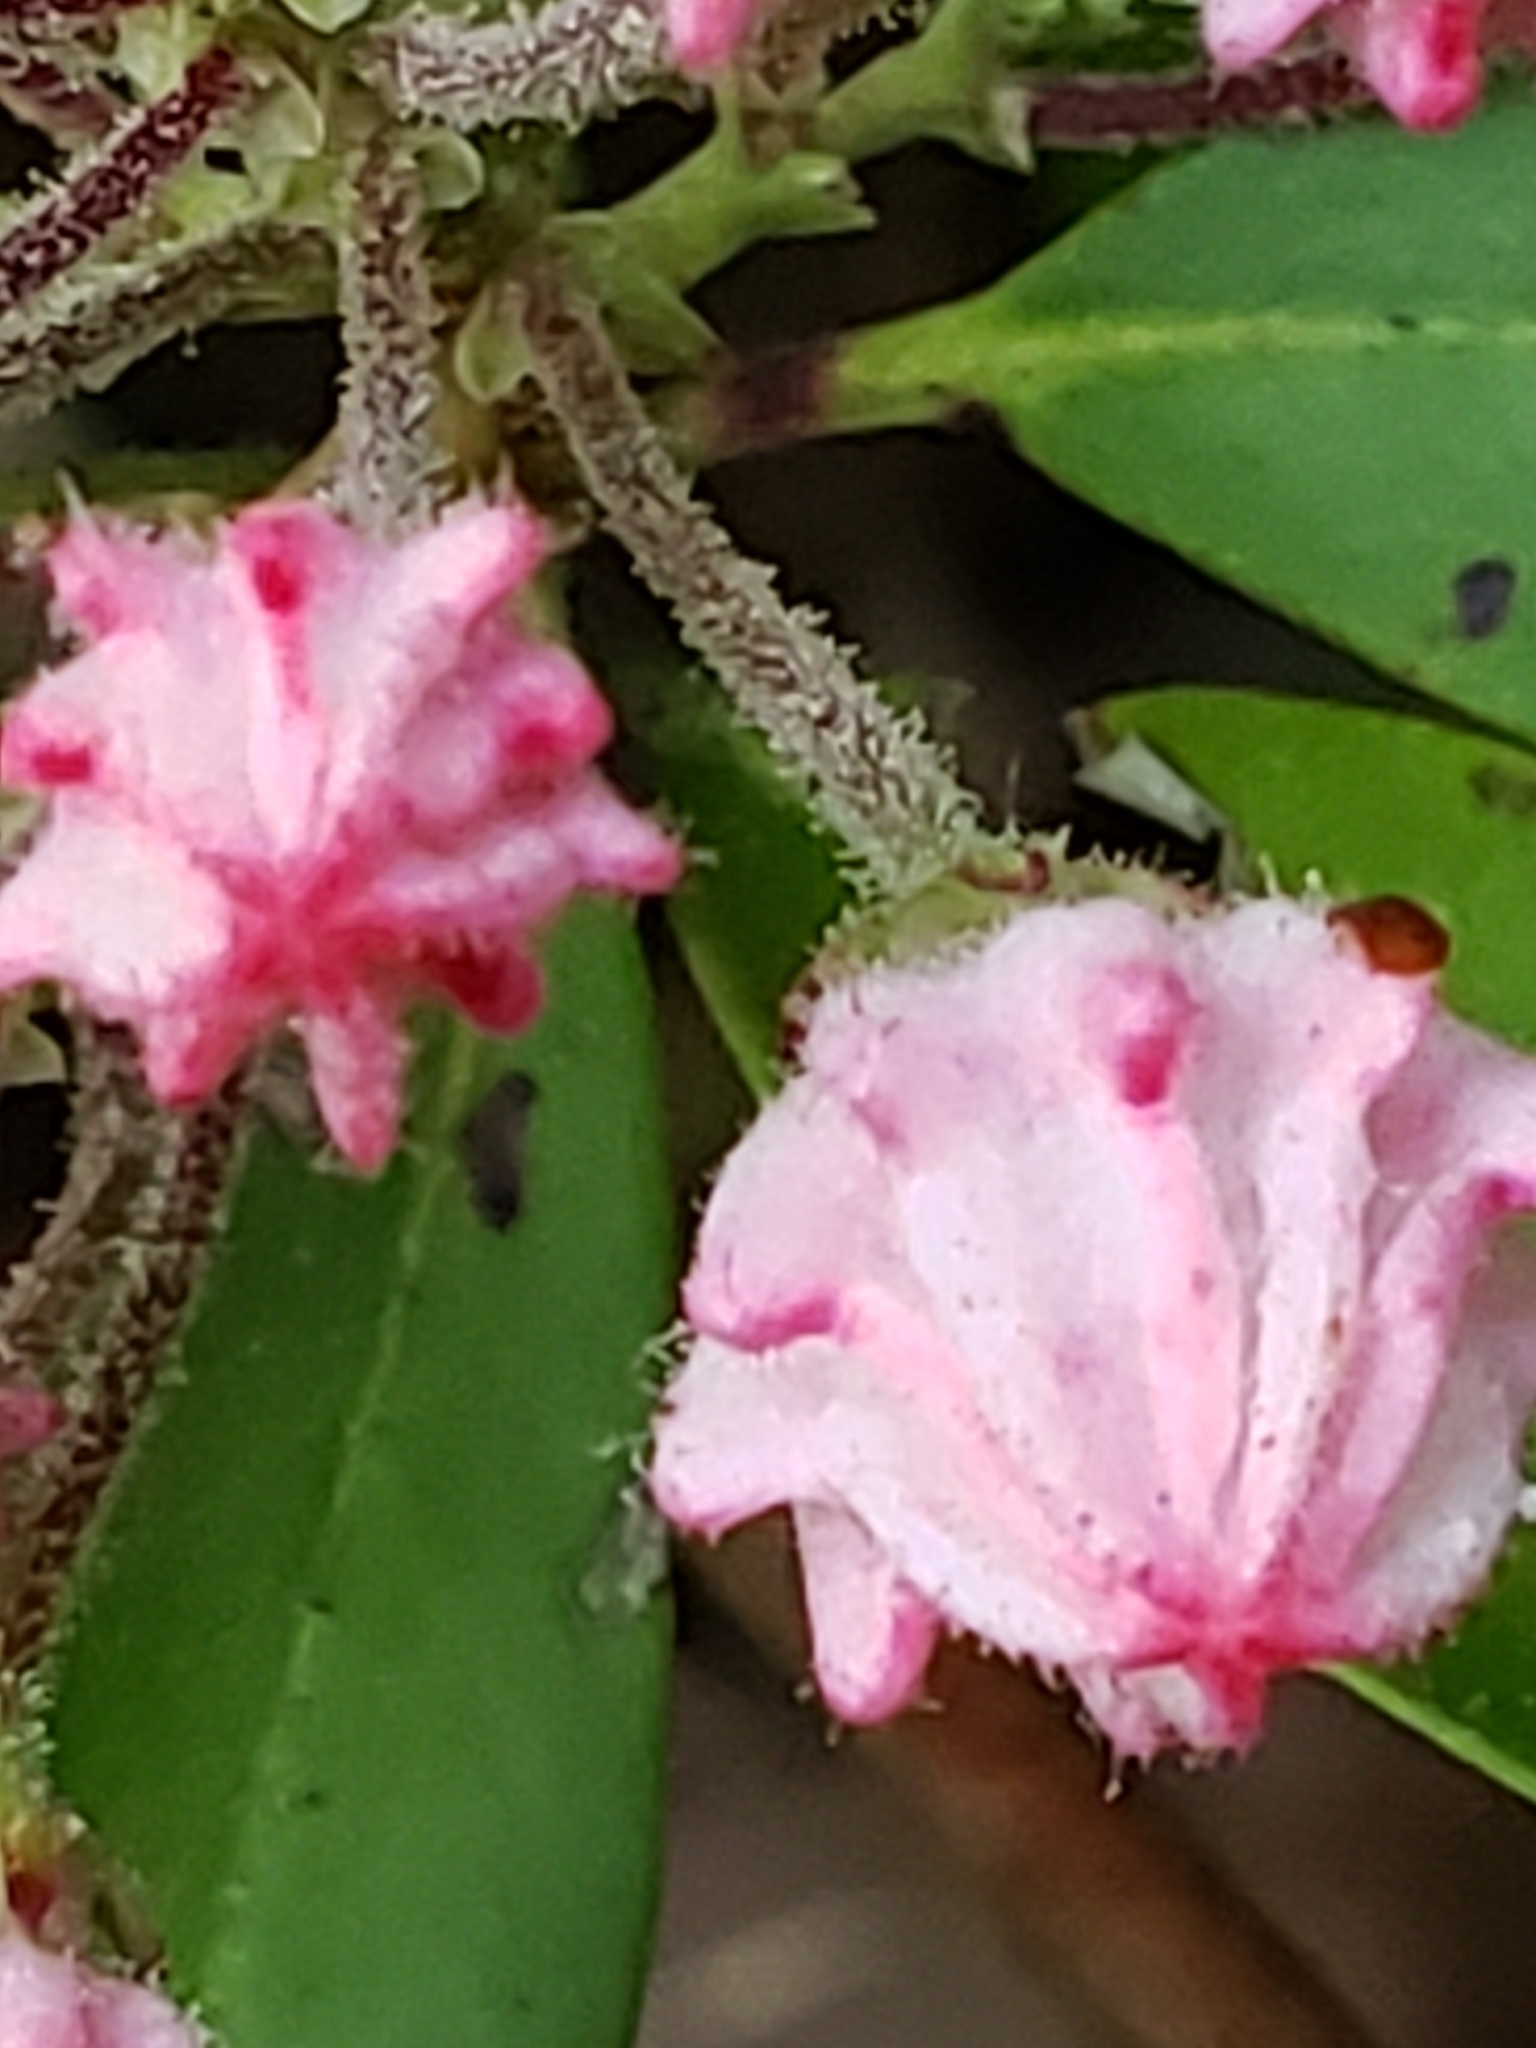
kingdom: Plantae
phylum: Tracheophyta
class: Magnoliopsida
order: Ericales
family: Ericaceae
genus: Kalmia
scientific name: Kalmia latifolia
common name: Mountain-laurel
